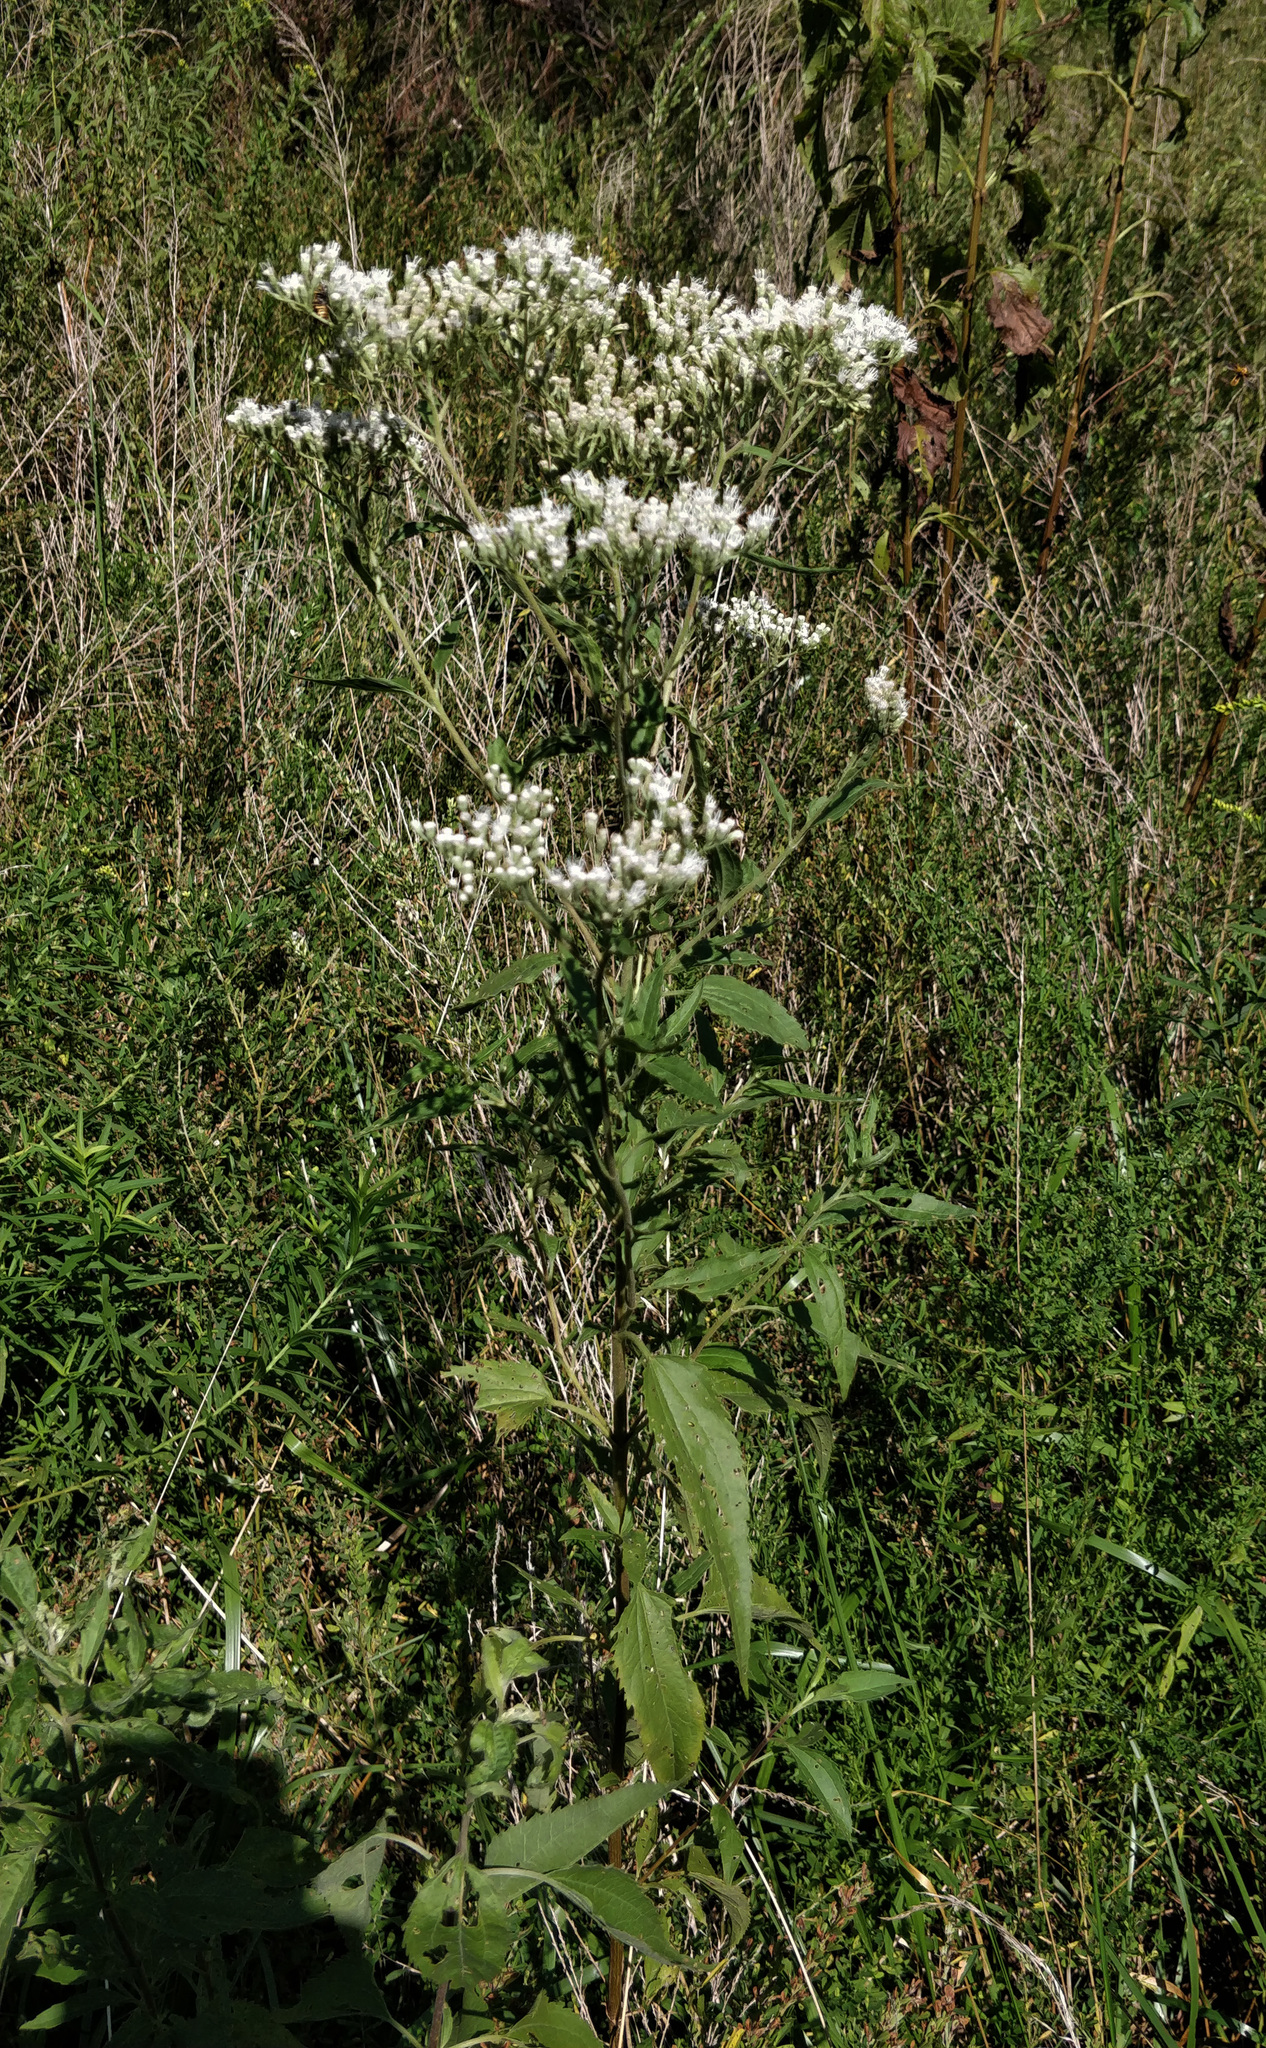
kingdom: Plantae
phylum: Tracheophyta
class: Magnoliopsida
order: Asterales
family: Asteraceae
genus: Eupatorium
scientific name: Eupatorium serotinum
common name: Late boneset
